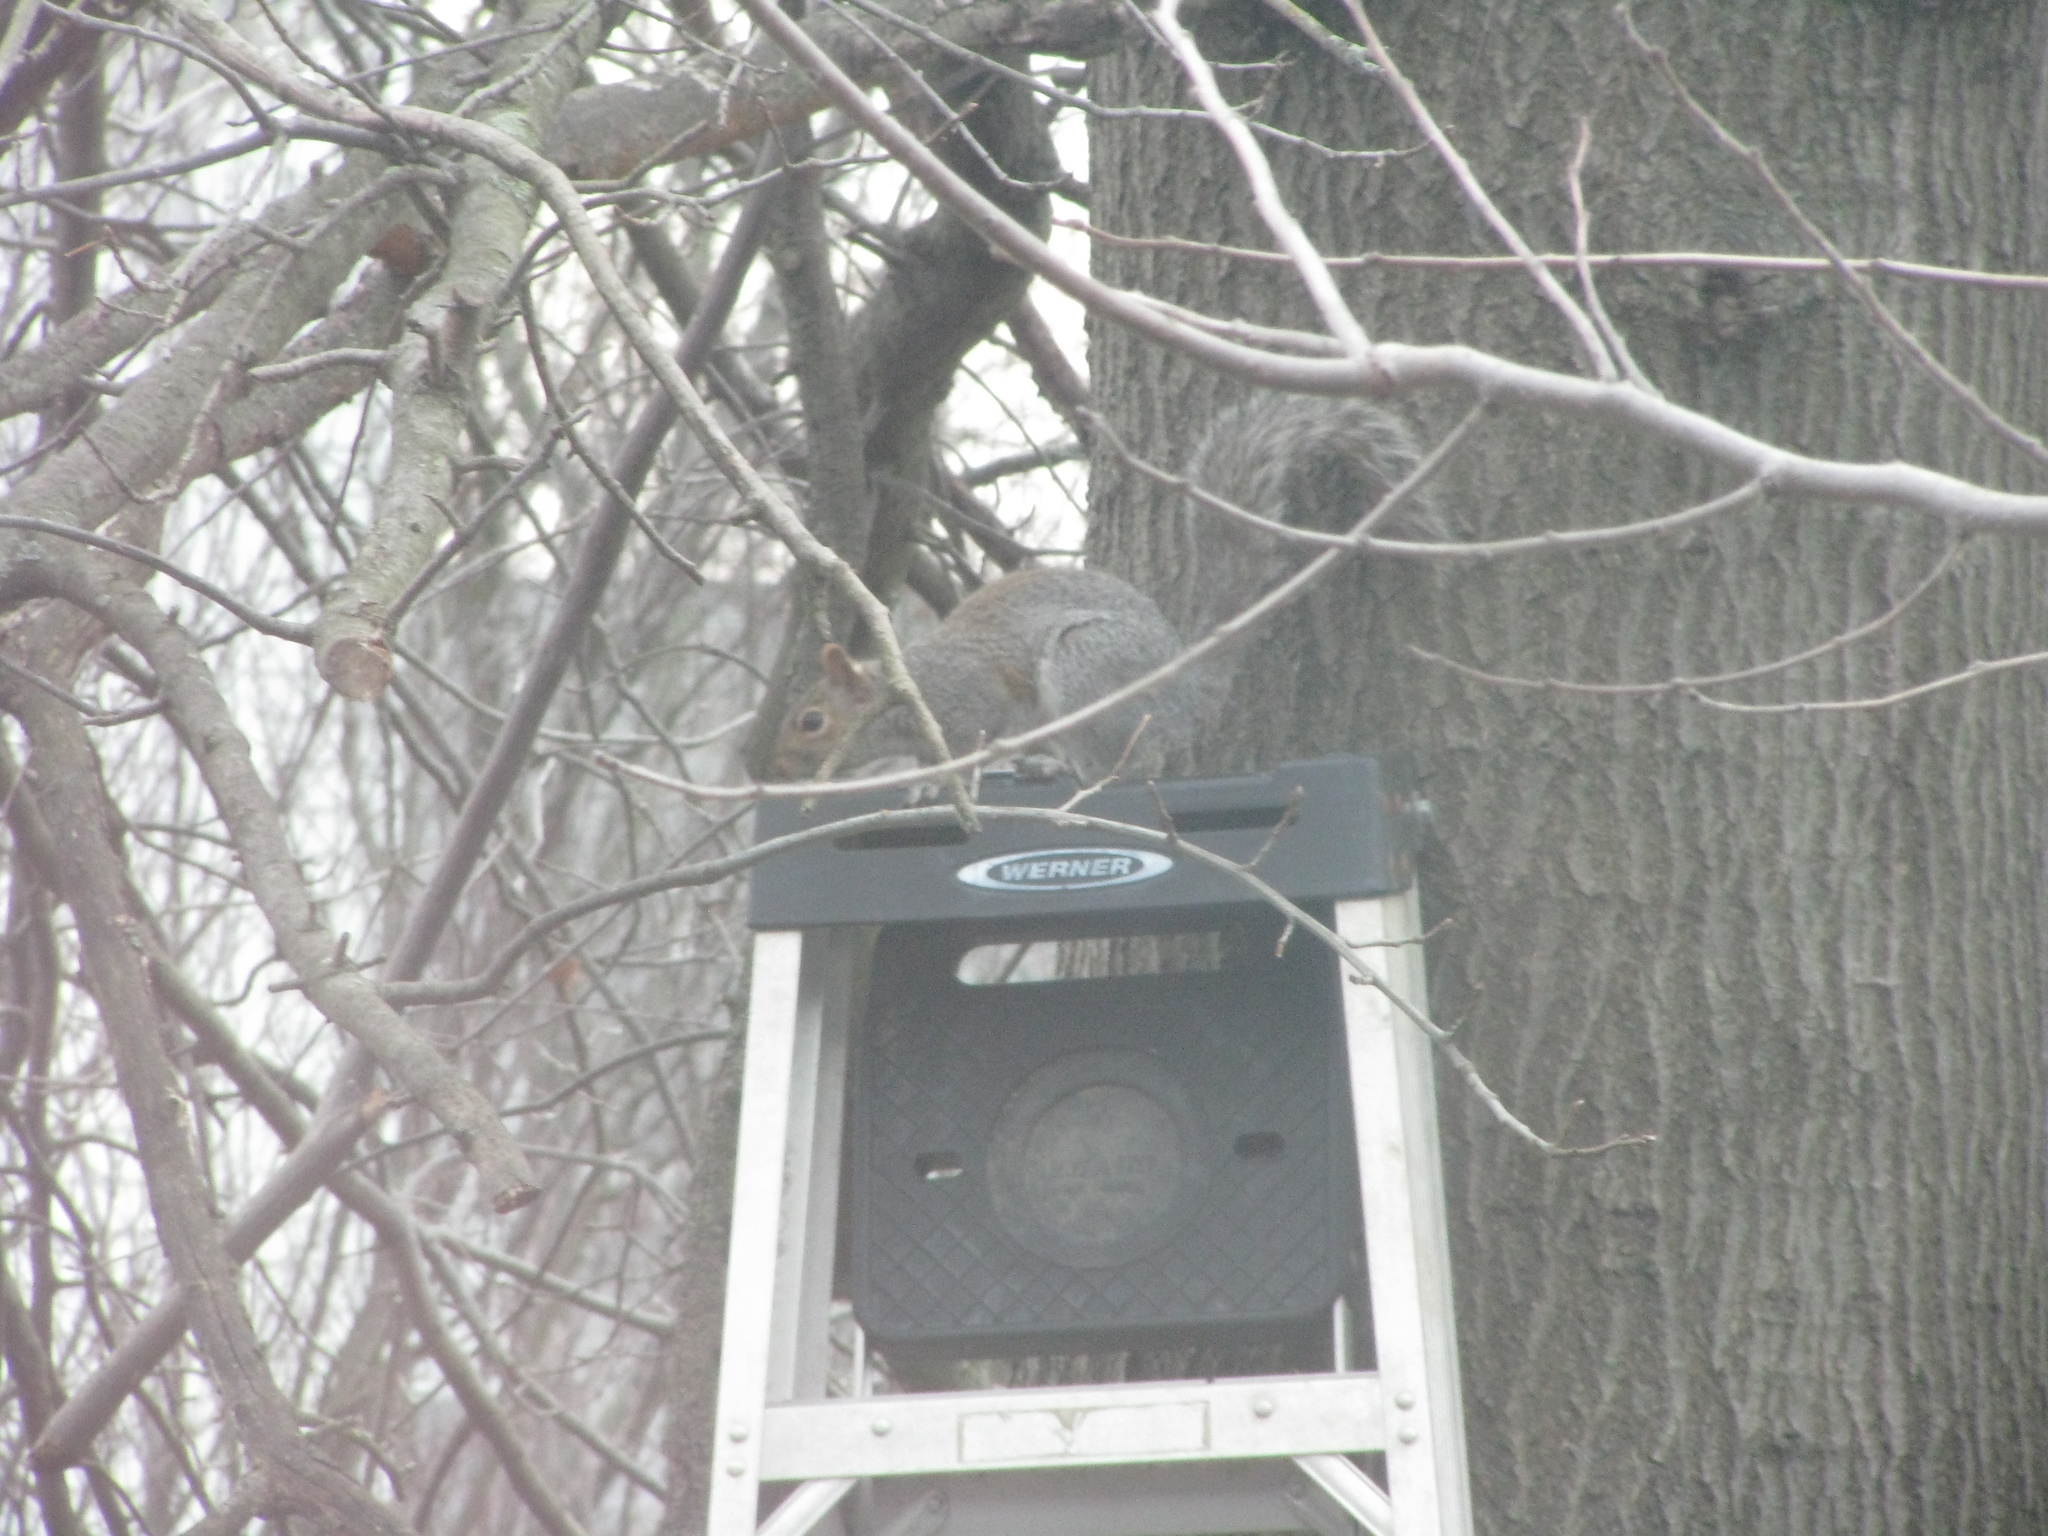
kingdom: Animalia
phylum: Chordata
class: Mammalia
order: Rodentia
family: Sciuridae
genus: Sciurus
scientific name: Sciurus carolinensis
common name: Eastern gray squirrel
